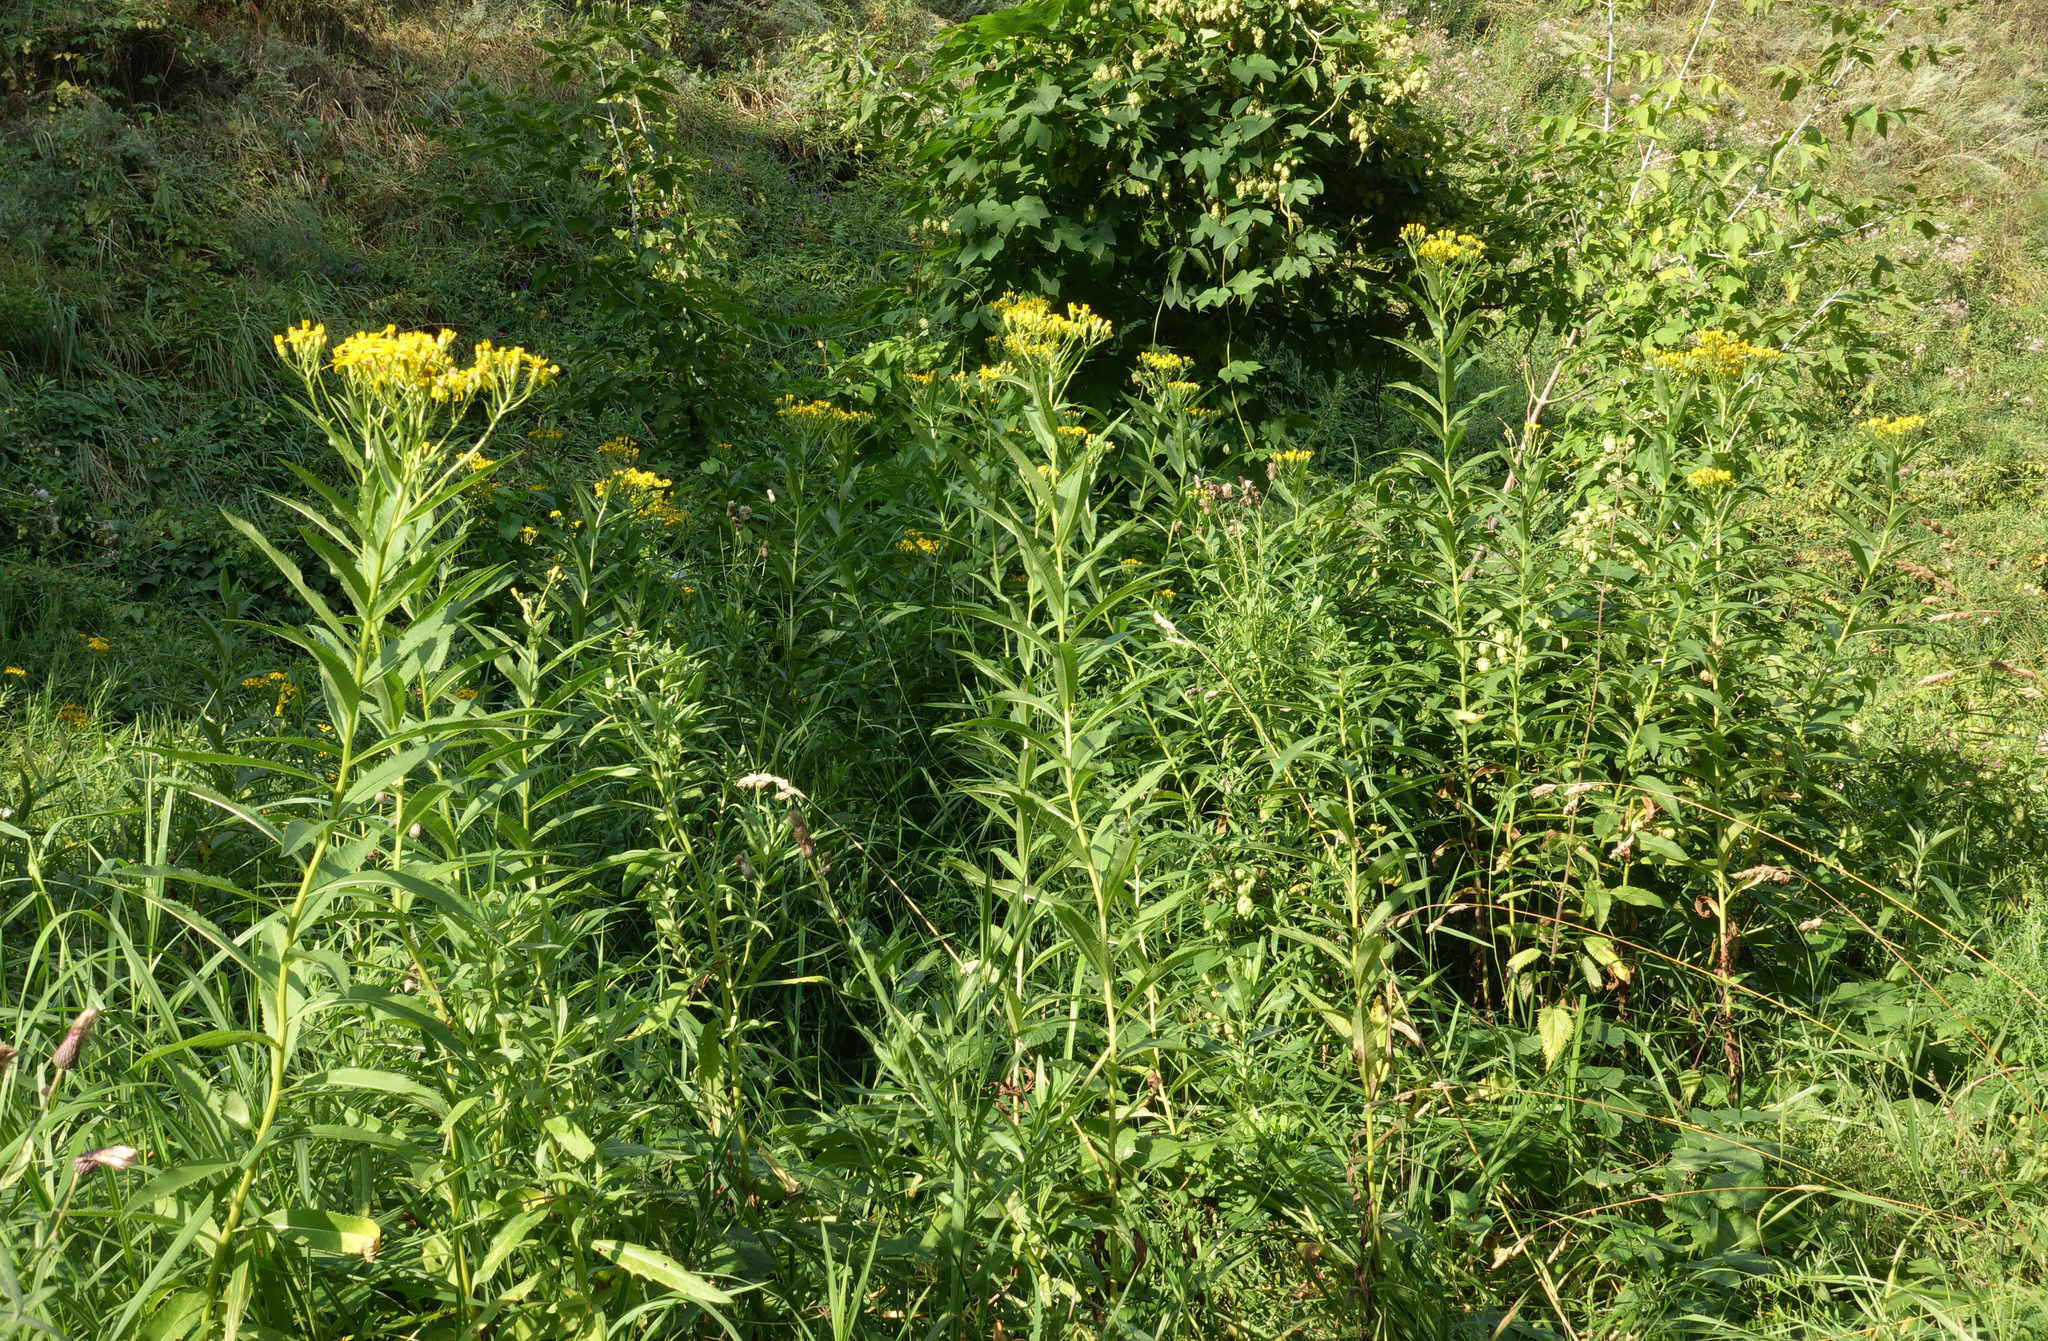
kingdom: Plantae
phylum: Tracheophyta
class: Magnoliopsida
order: Asterales
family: Asteraceae
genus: Senecio
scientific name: Senecio sarracenicus
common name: Broad-leaved ragwort
